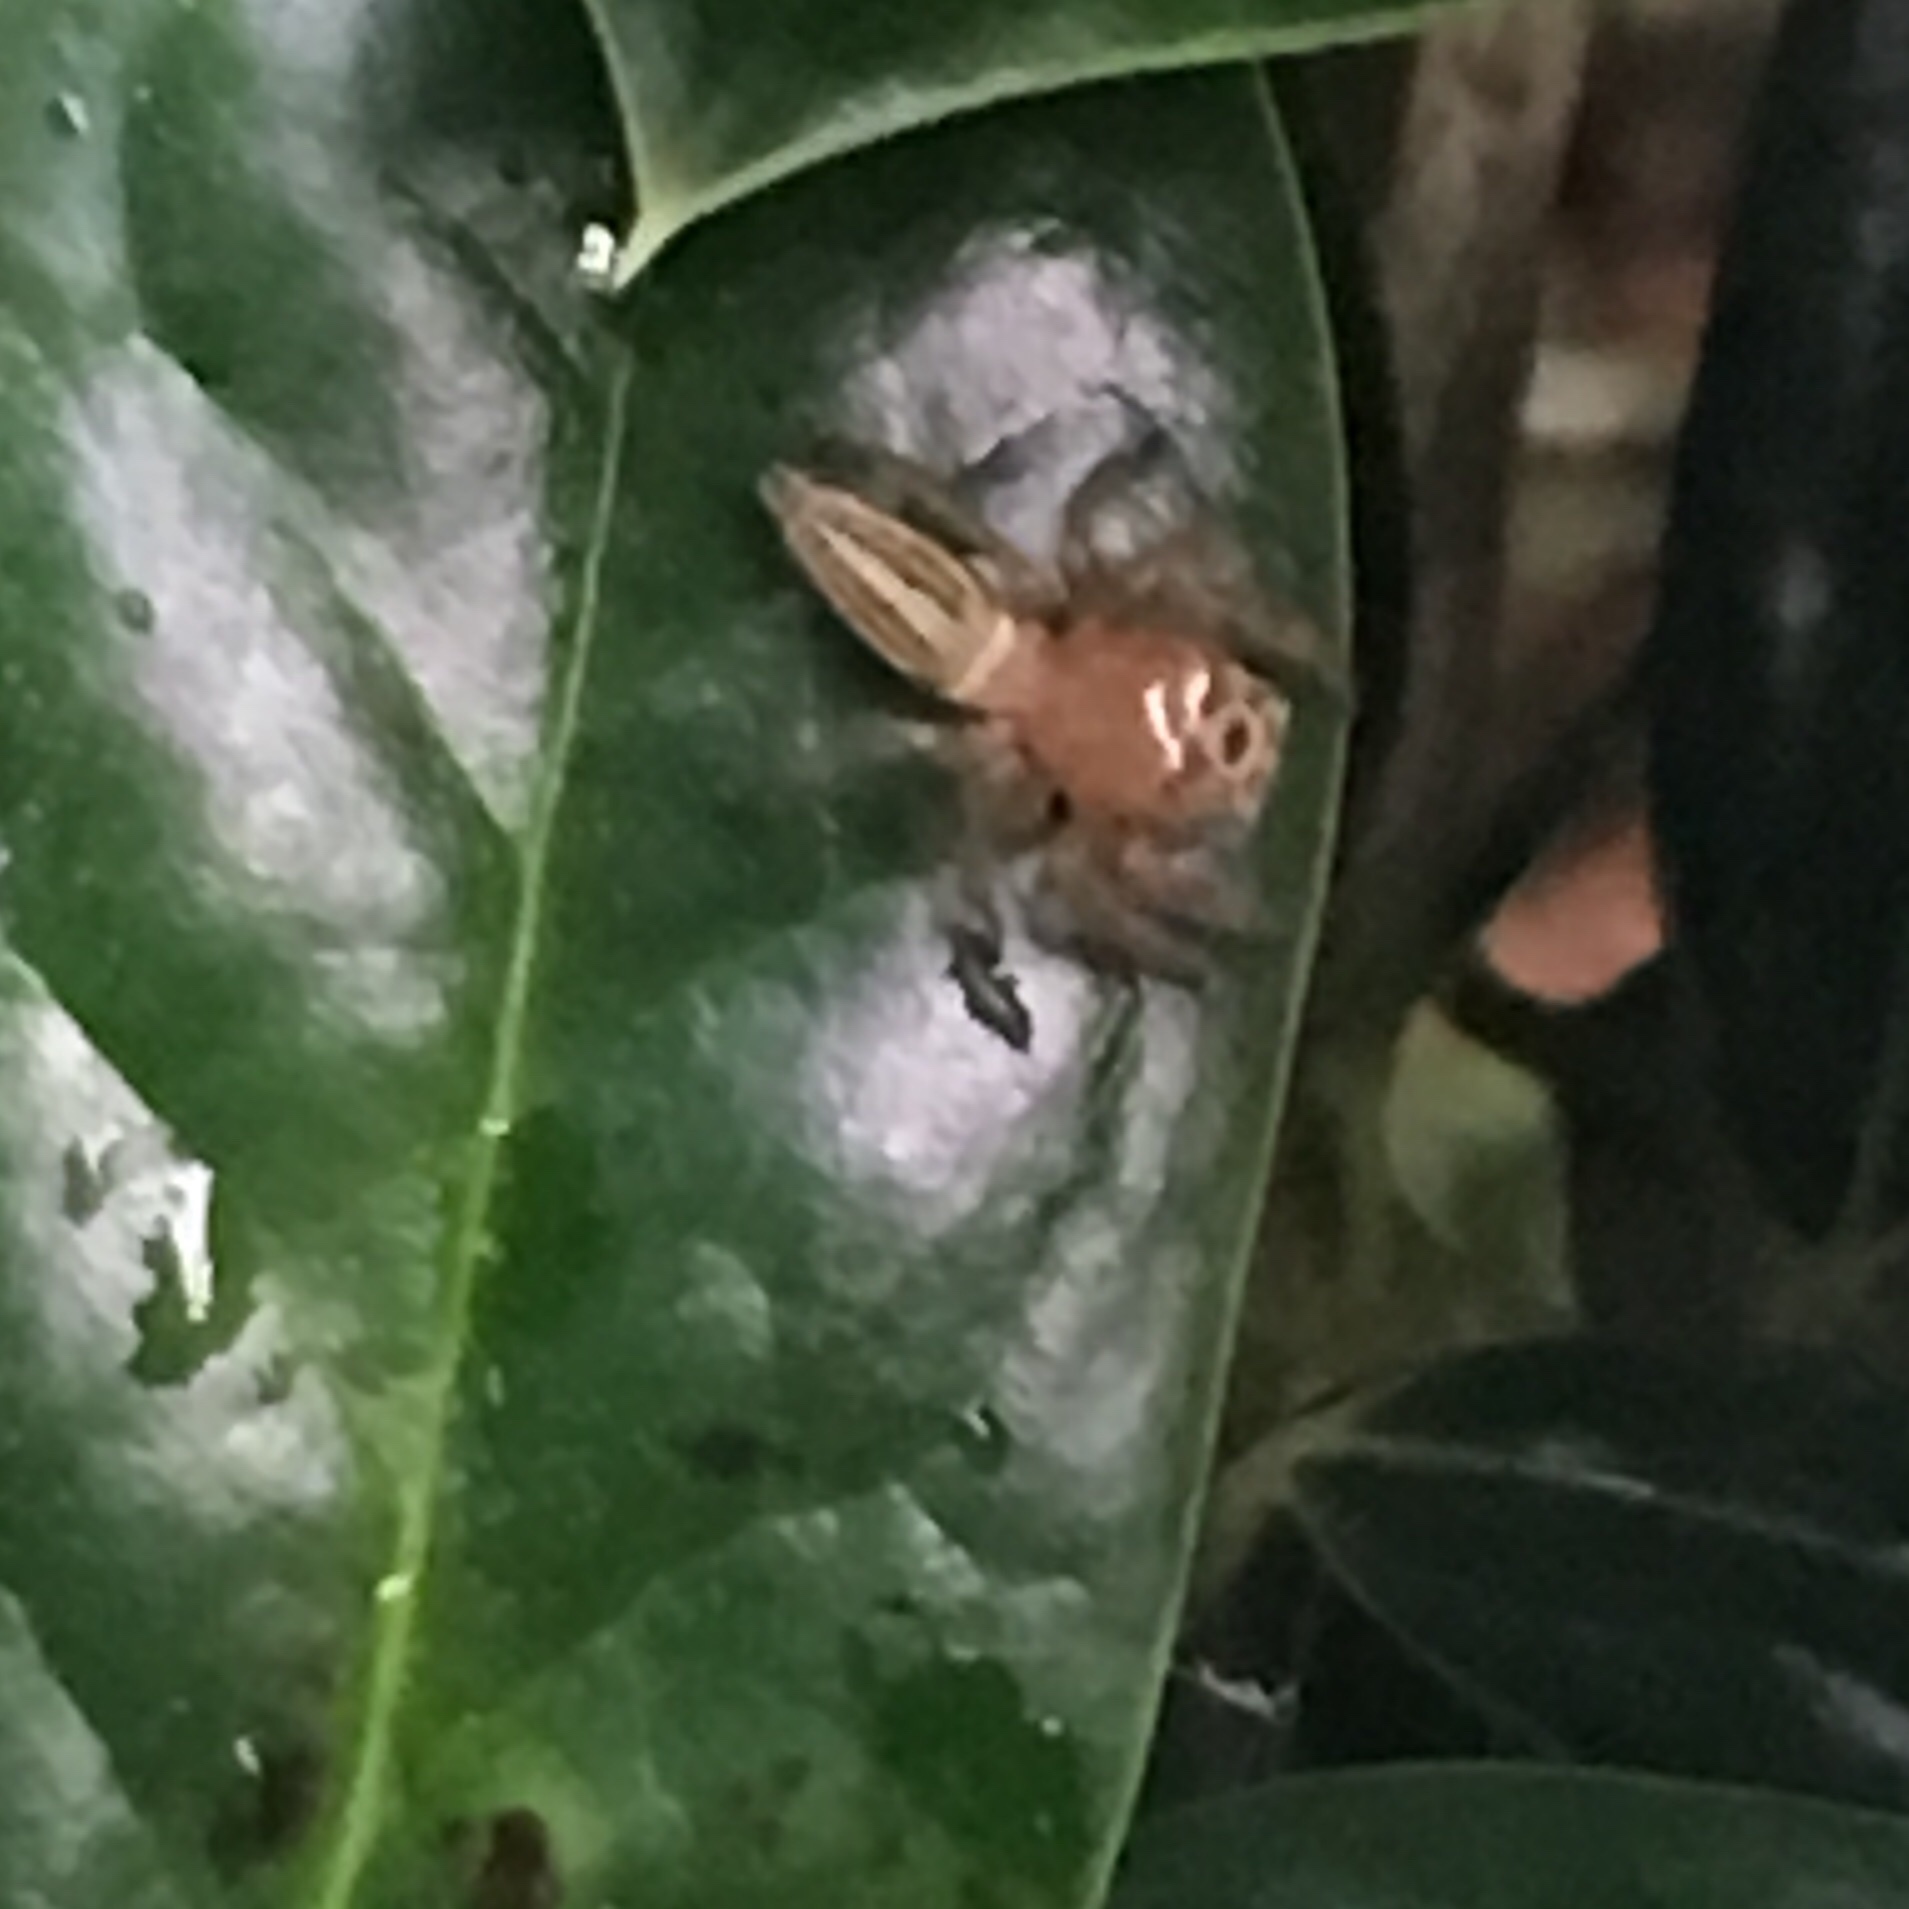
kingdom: Animalia
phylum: Arthropoda
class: Arachnida
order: Araneae
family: Salticidae
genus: Colonus
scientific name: Colonus sylvanus
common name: Jumping spiders
